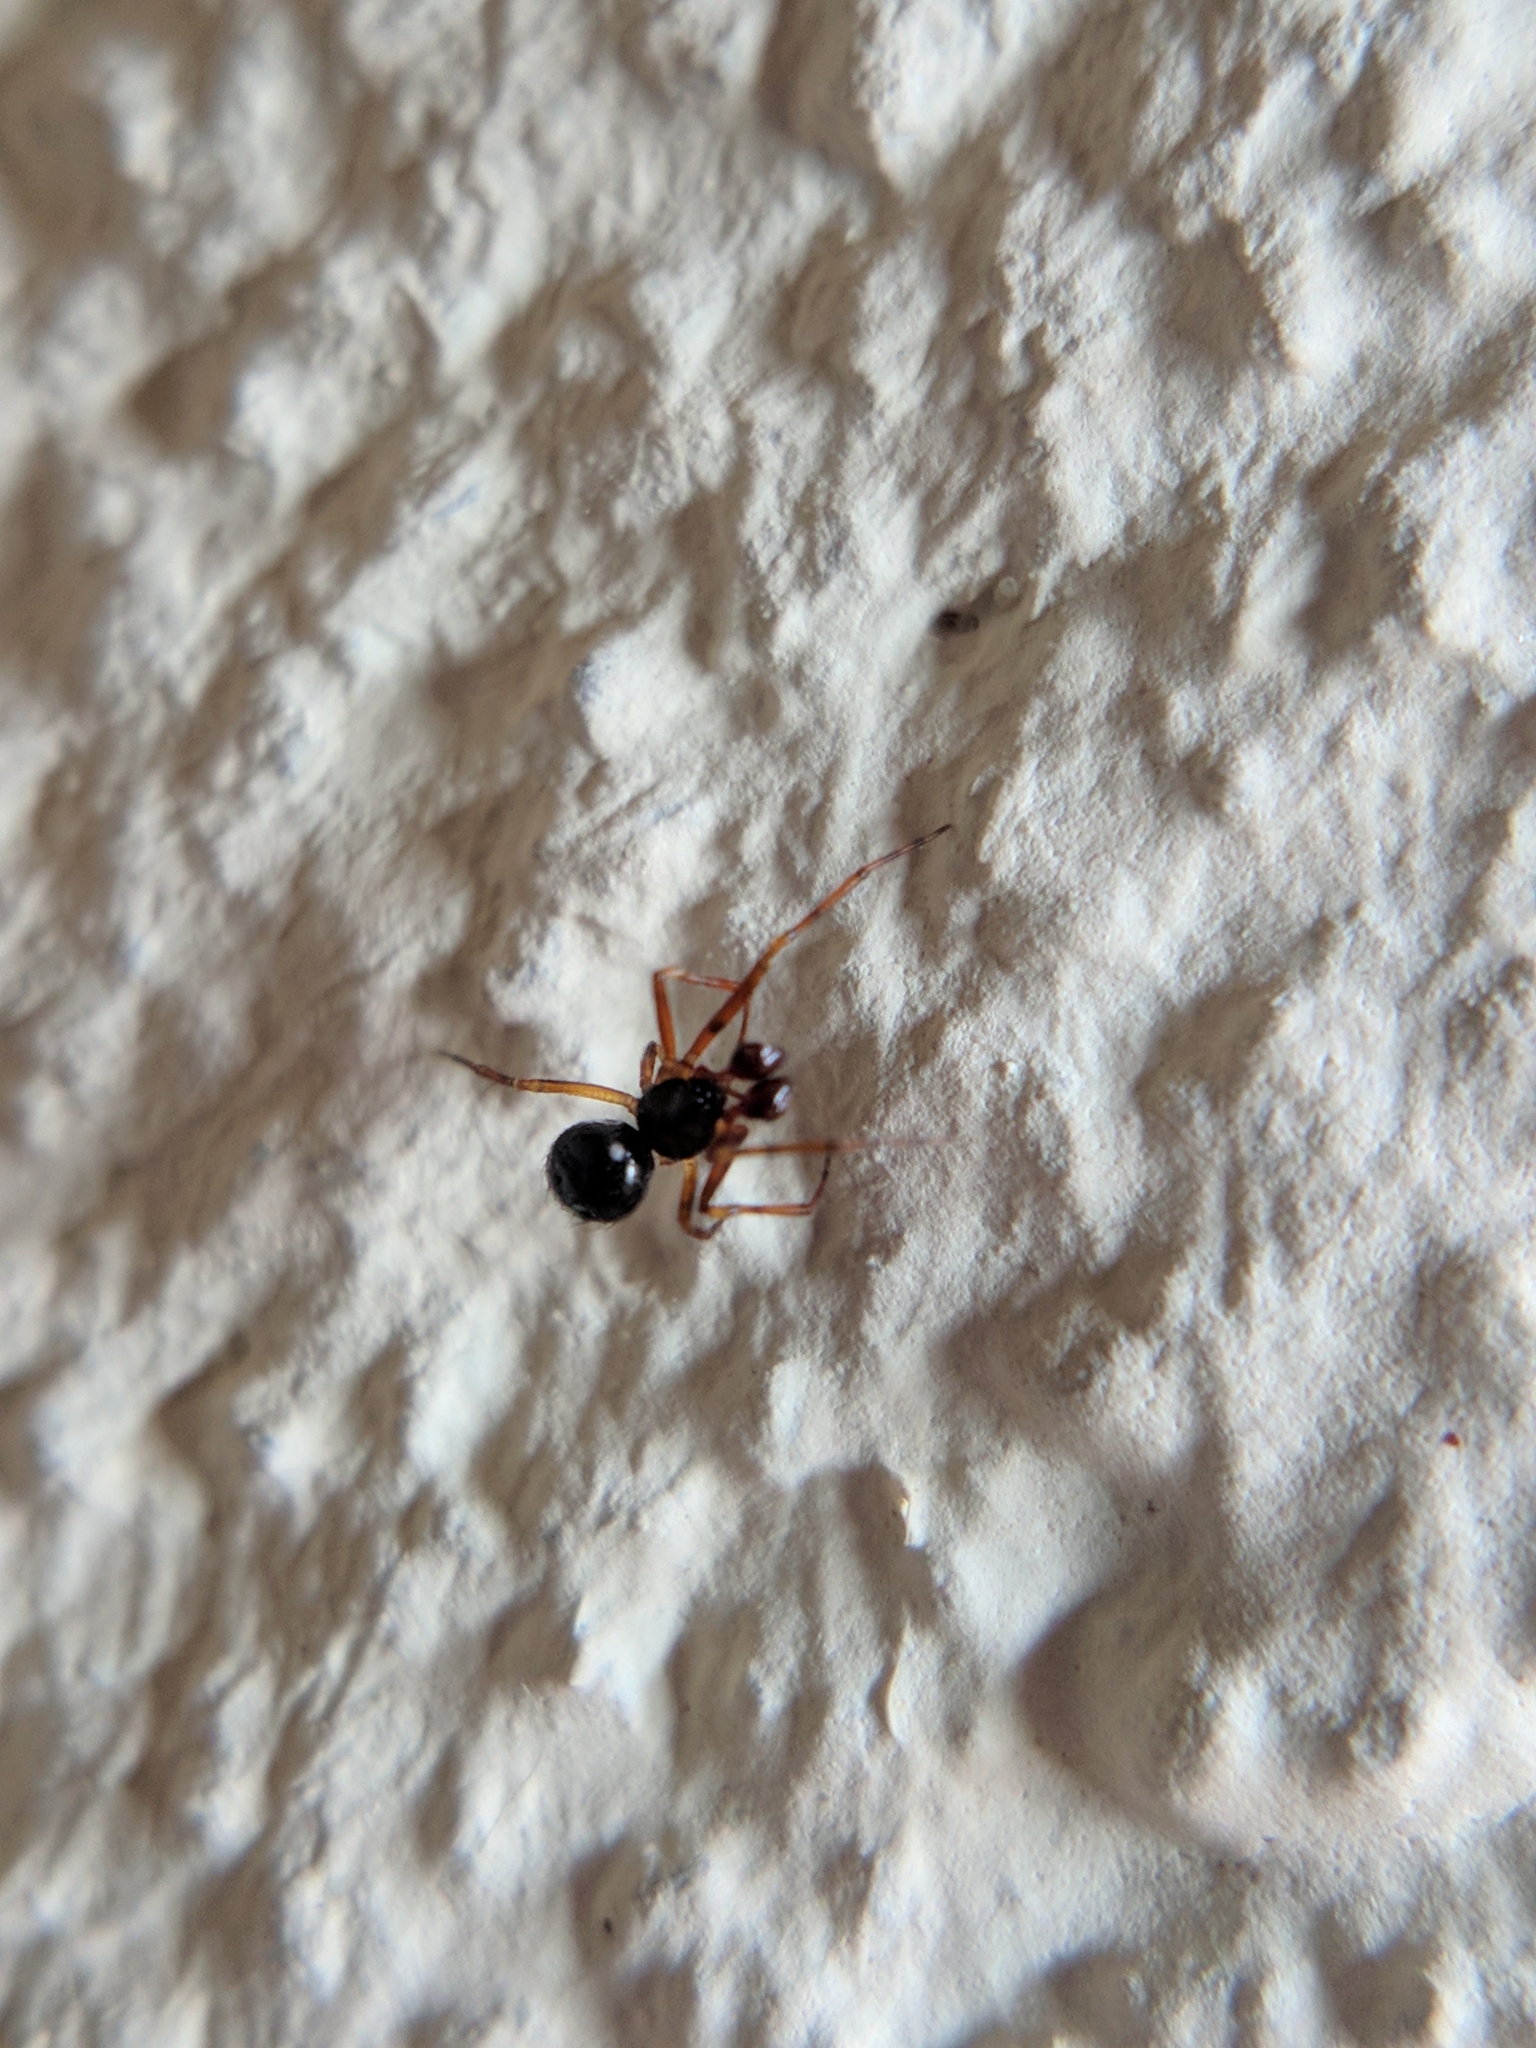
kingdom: Animalia
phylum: Arthropoda
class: Arachnida
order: Araneae
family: Theridiidae
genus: Sardinidion
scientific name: Sardinidion blackwalli
